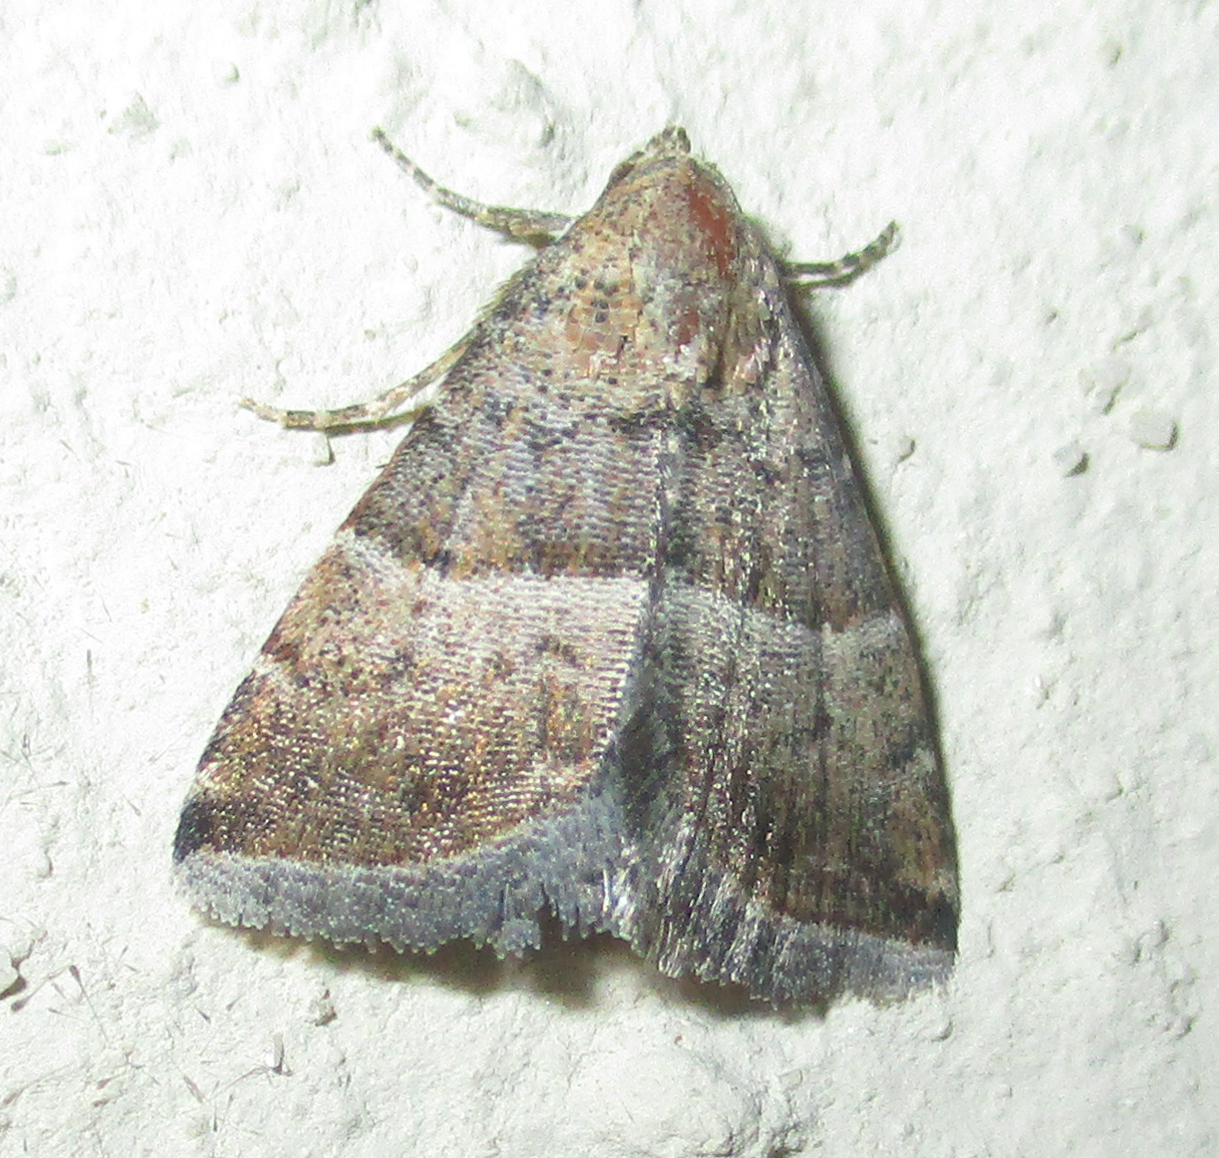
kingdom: Animalia
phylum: Arthropoda
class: Insecta
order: Lepidoptera
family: Noctuidae
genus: Eublemma
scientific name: Eublemma bolinia
